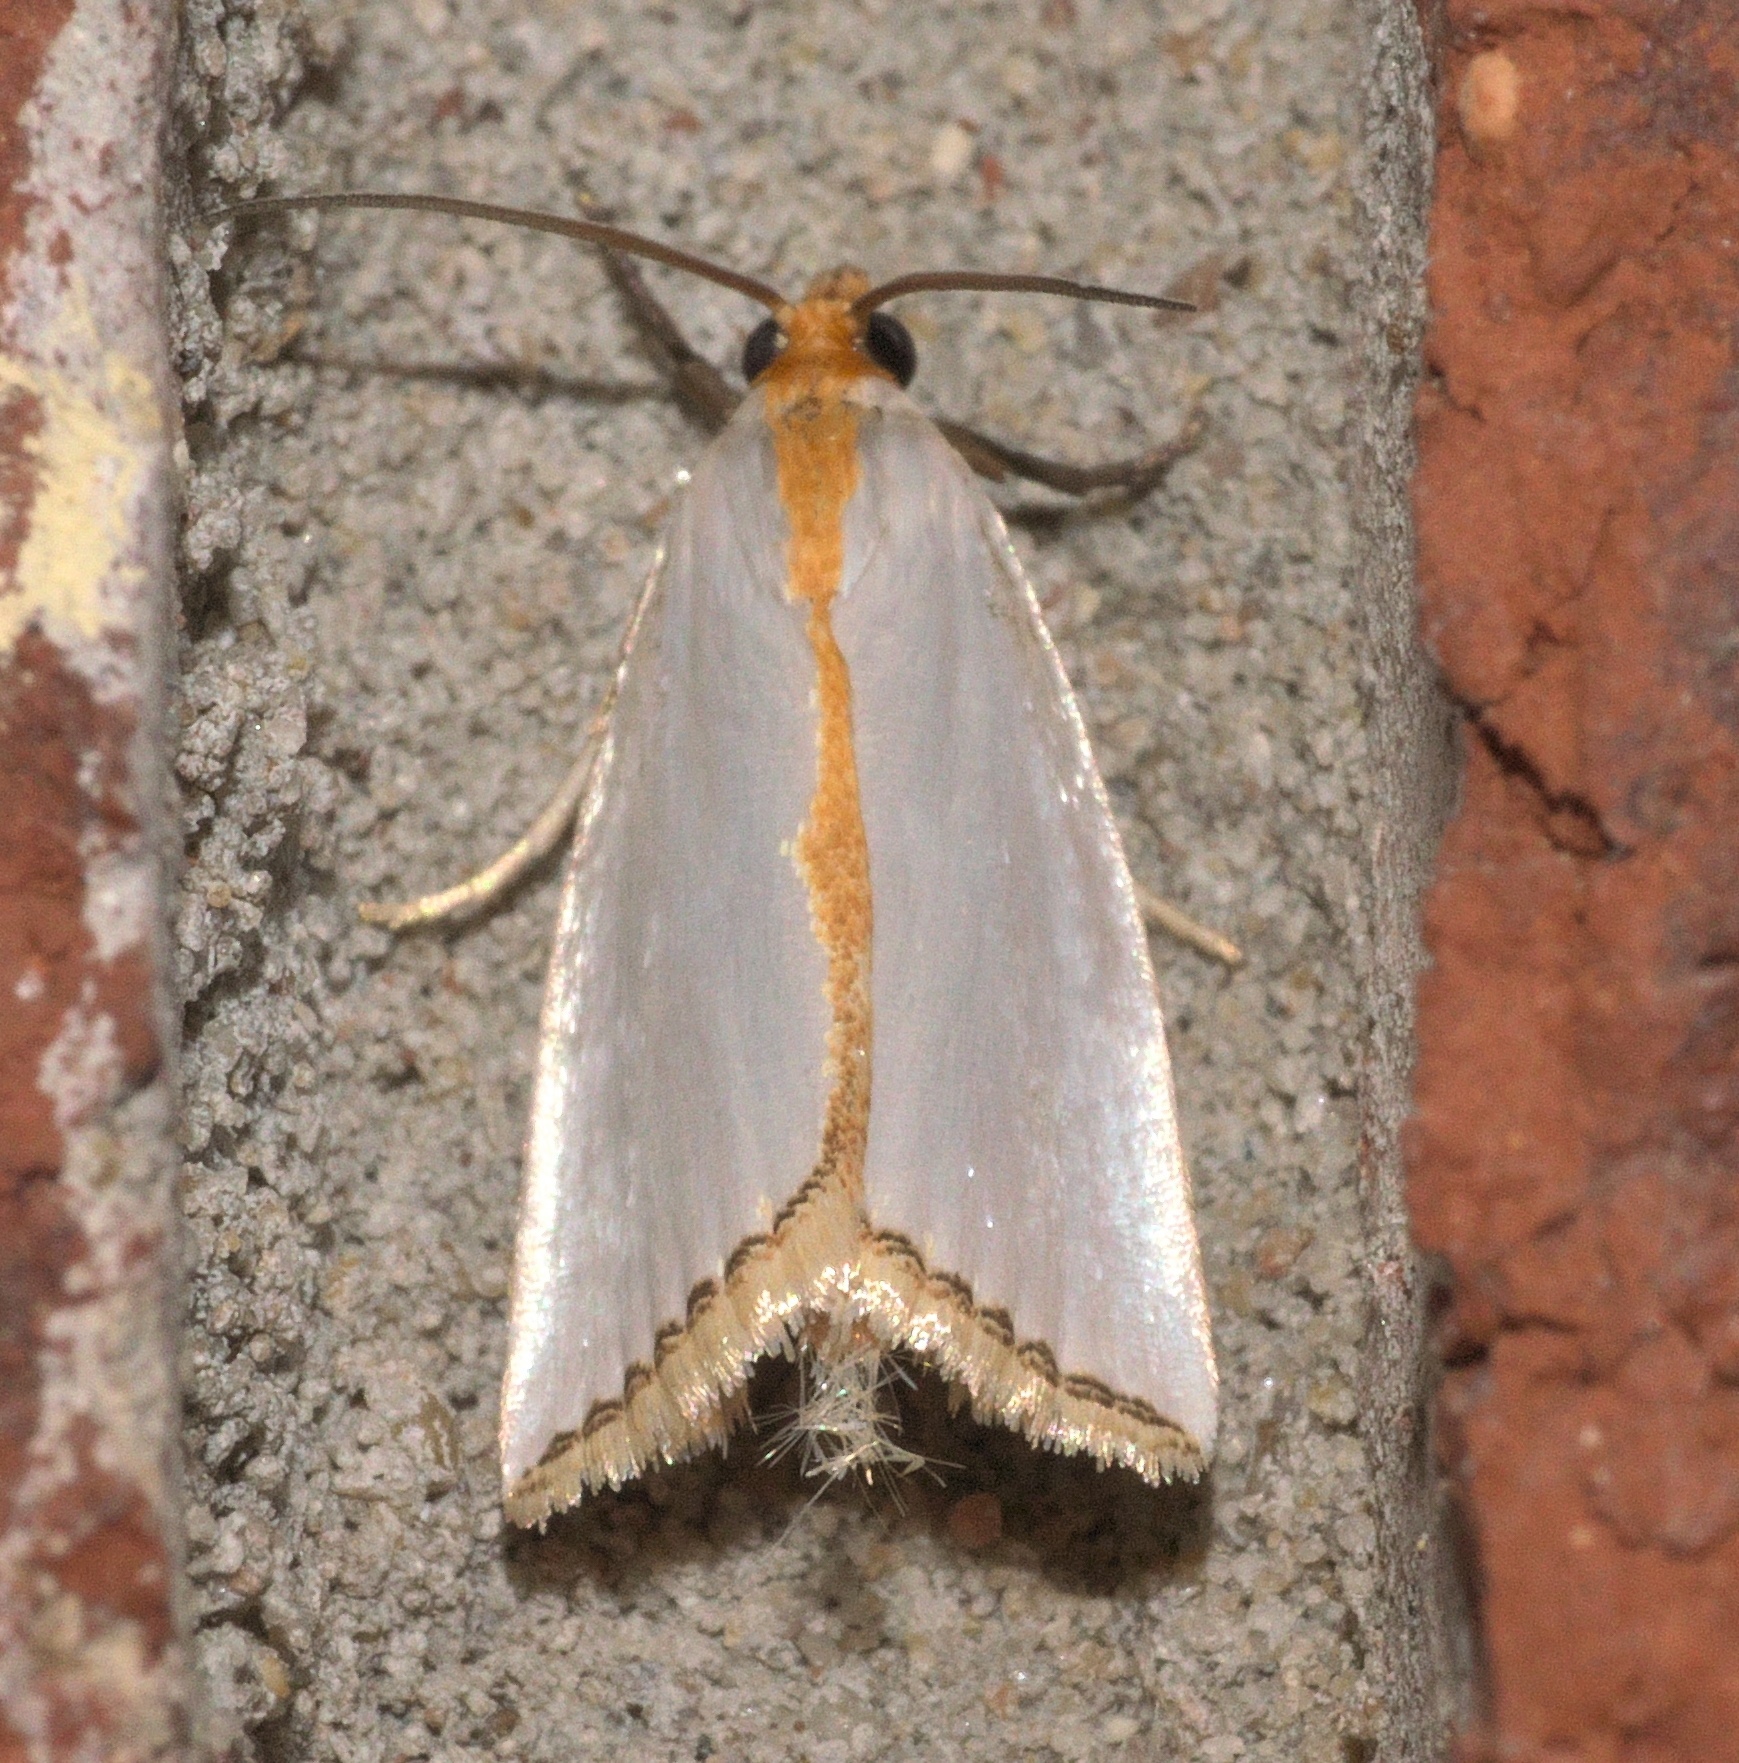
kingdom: Animalia
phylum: Arthropoda
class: Insecta
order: Lepidoptera
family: Crambidae
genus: Argyria
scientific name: Argyria
